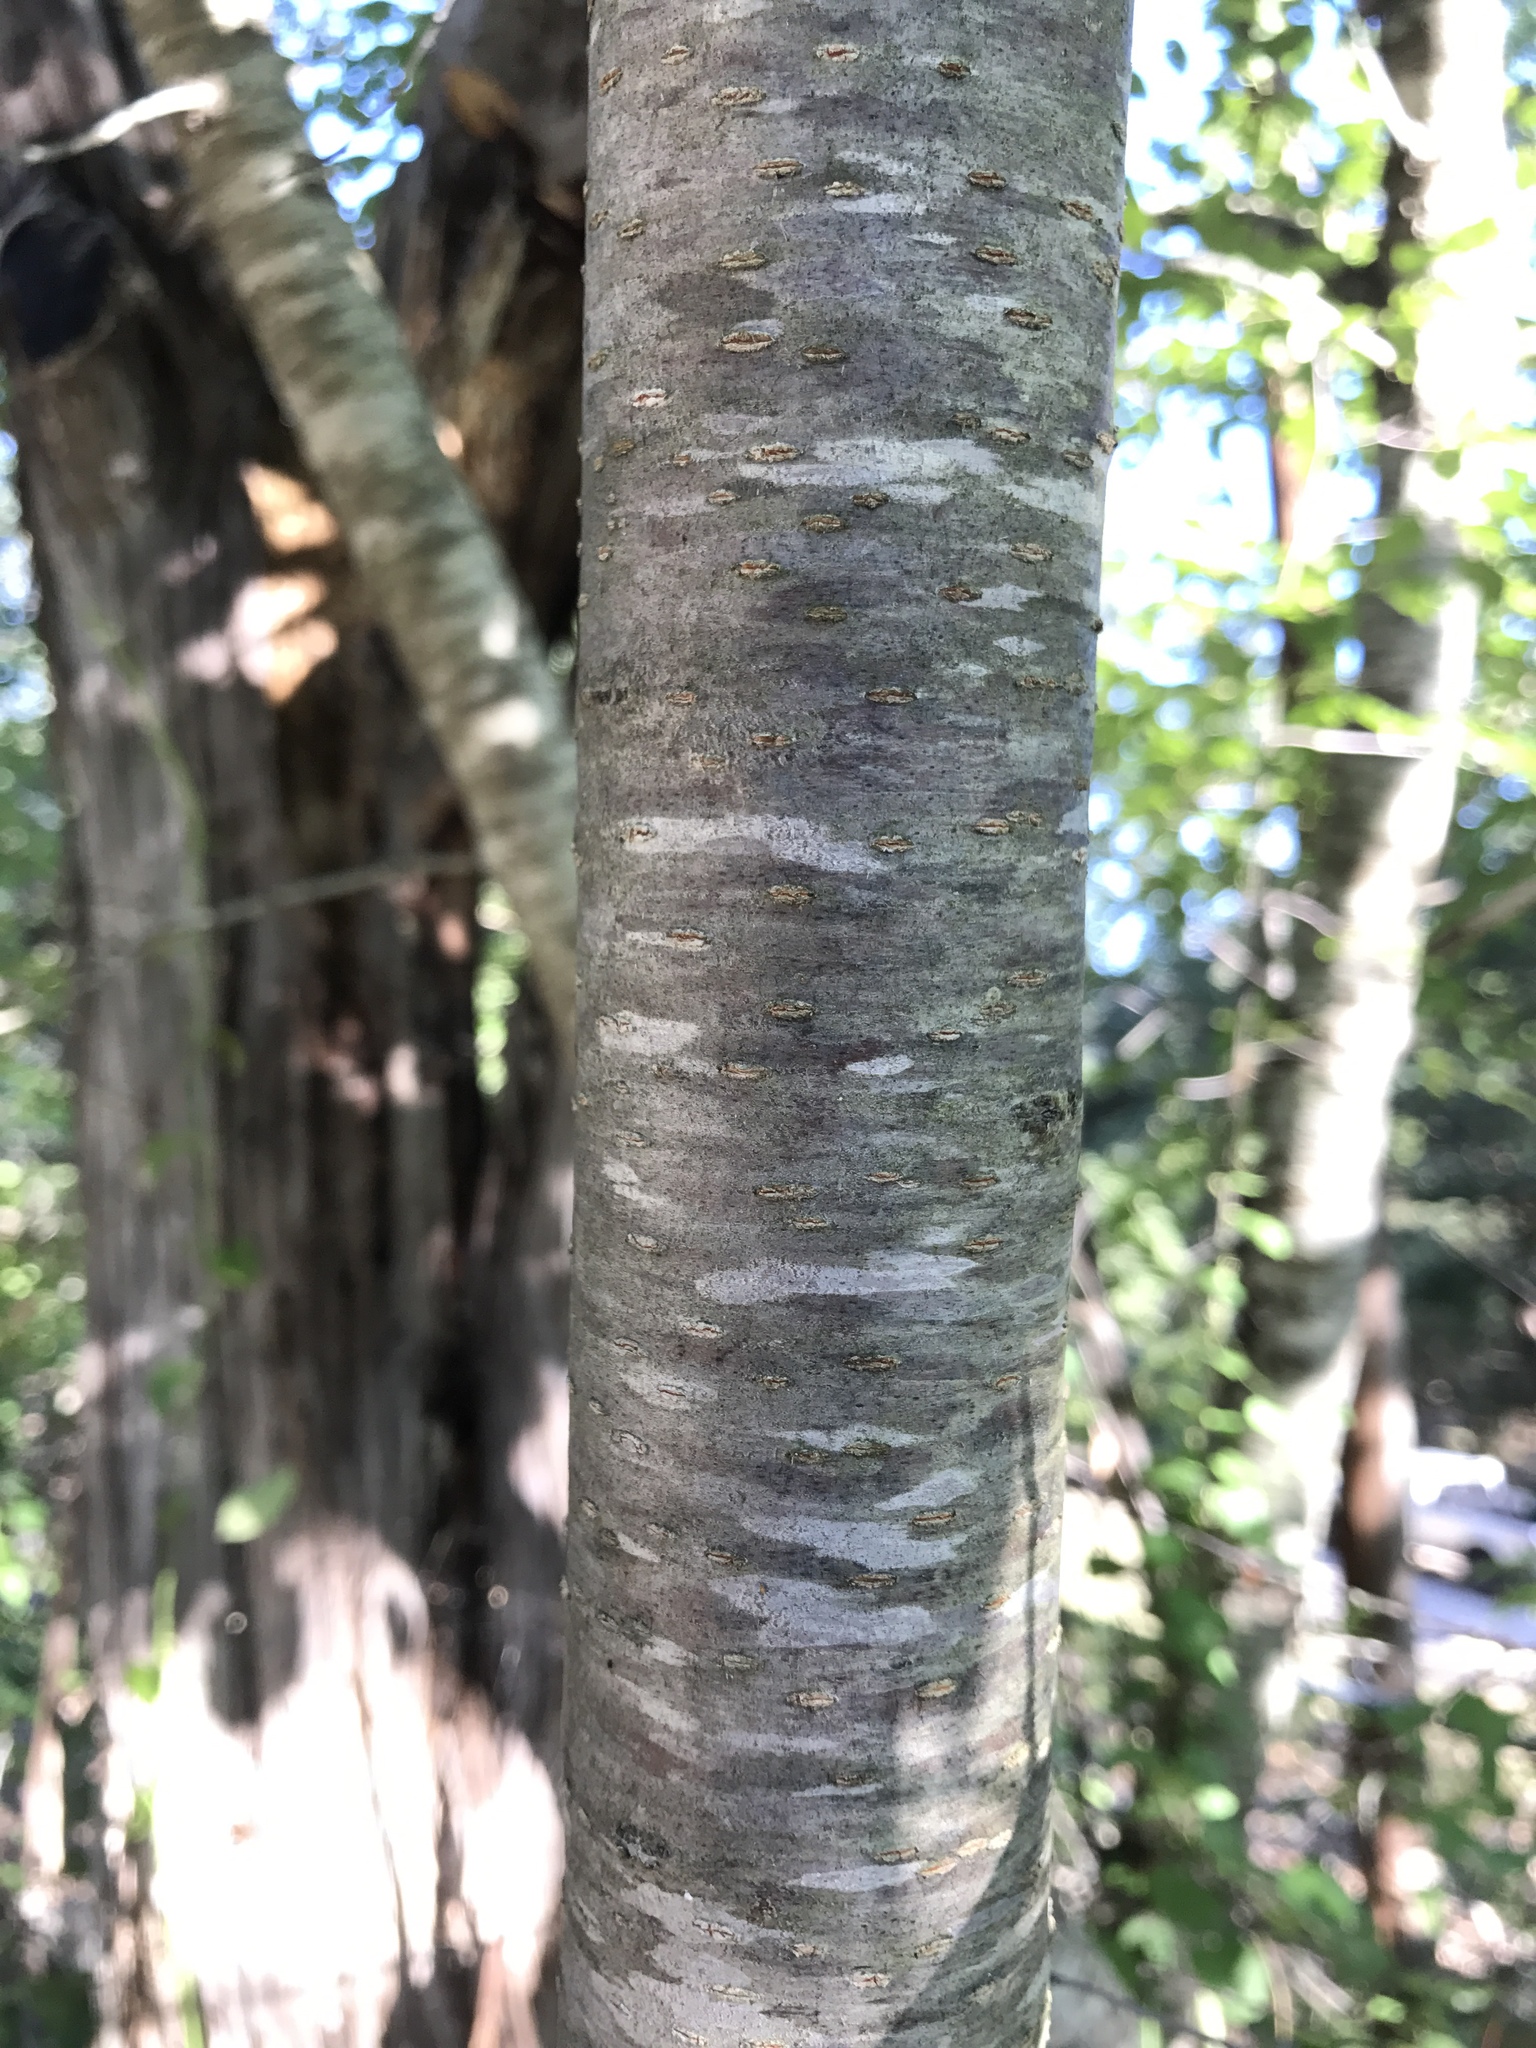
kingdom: Plantae
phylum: Tracheophyta
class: Magnoliopsida
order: Rosales
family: Rosaceae
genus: Prunus
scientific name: Prunus serotina
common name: Black cherry
